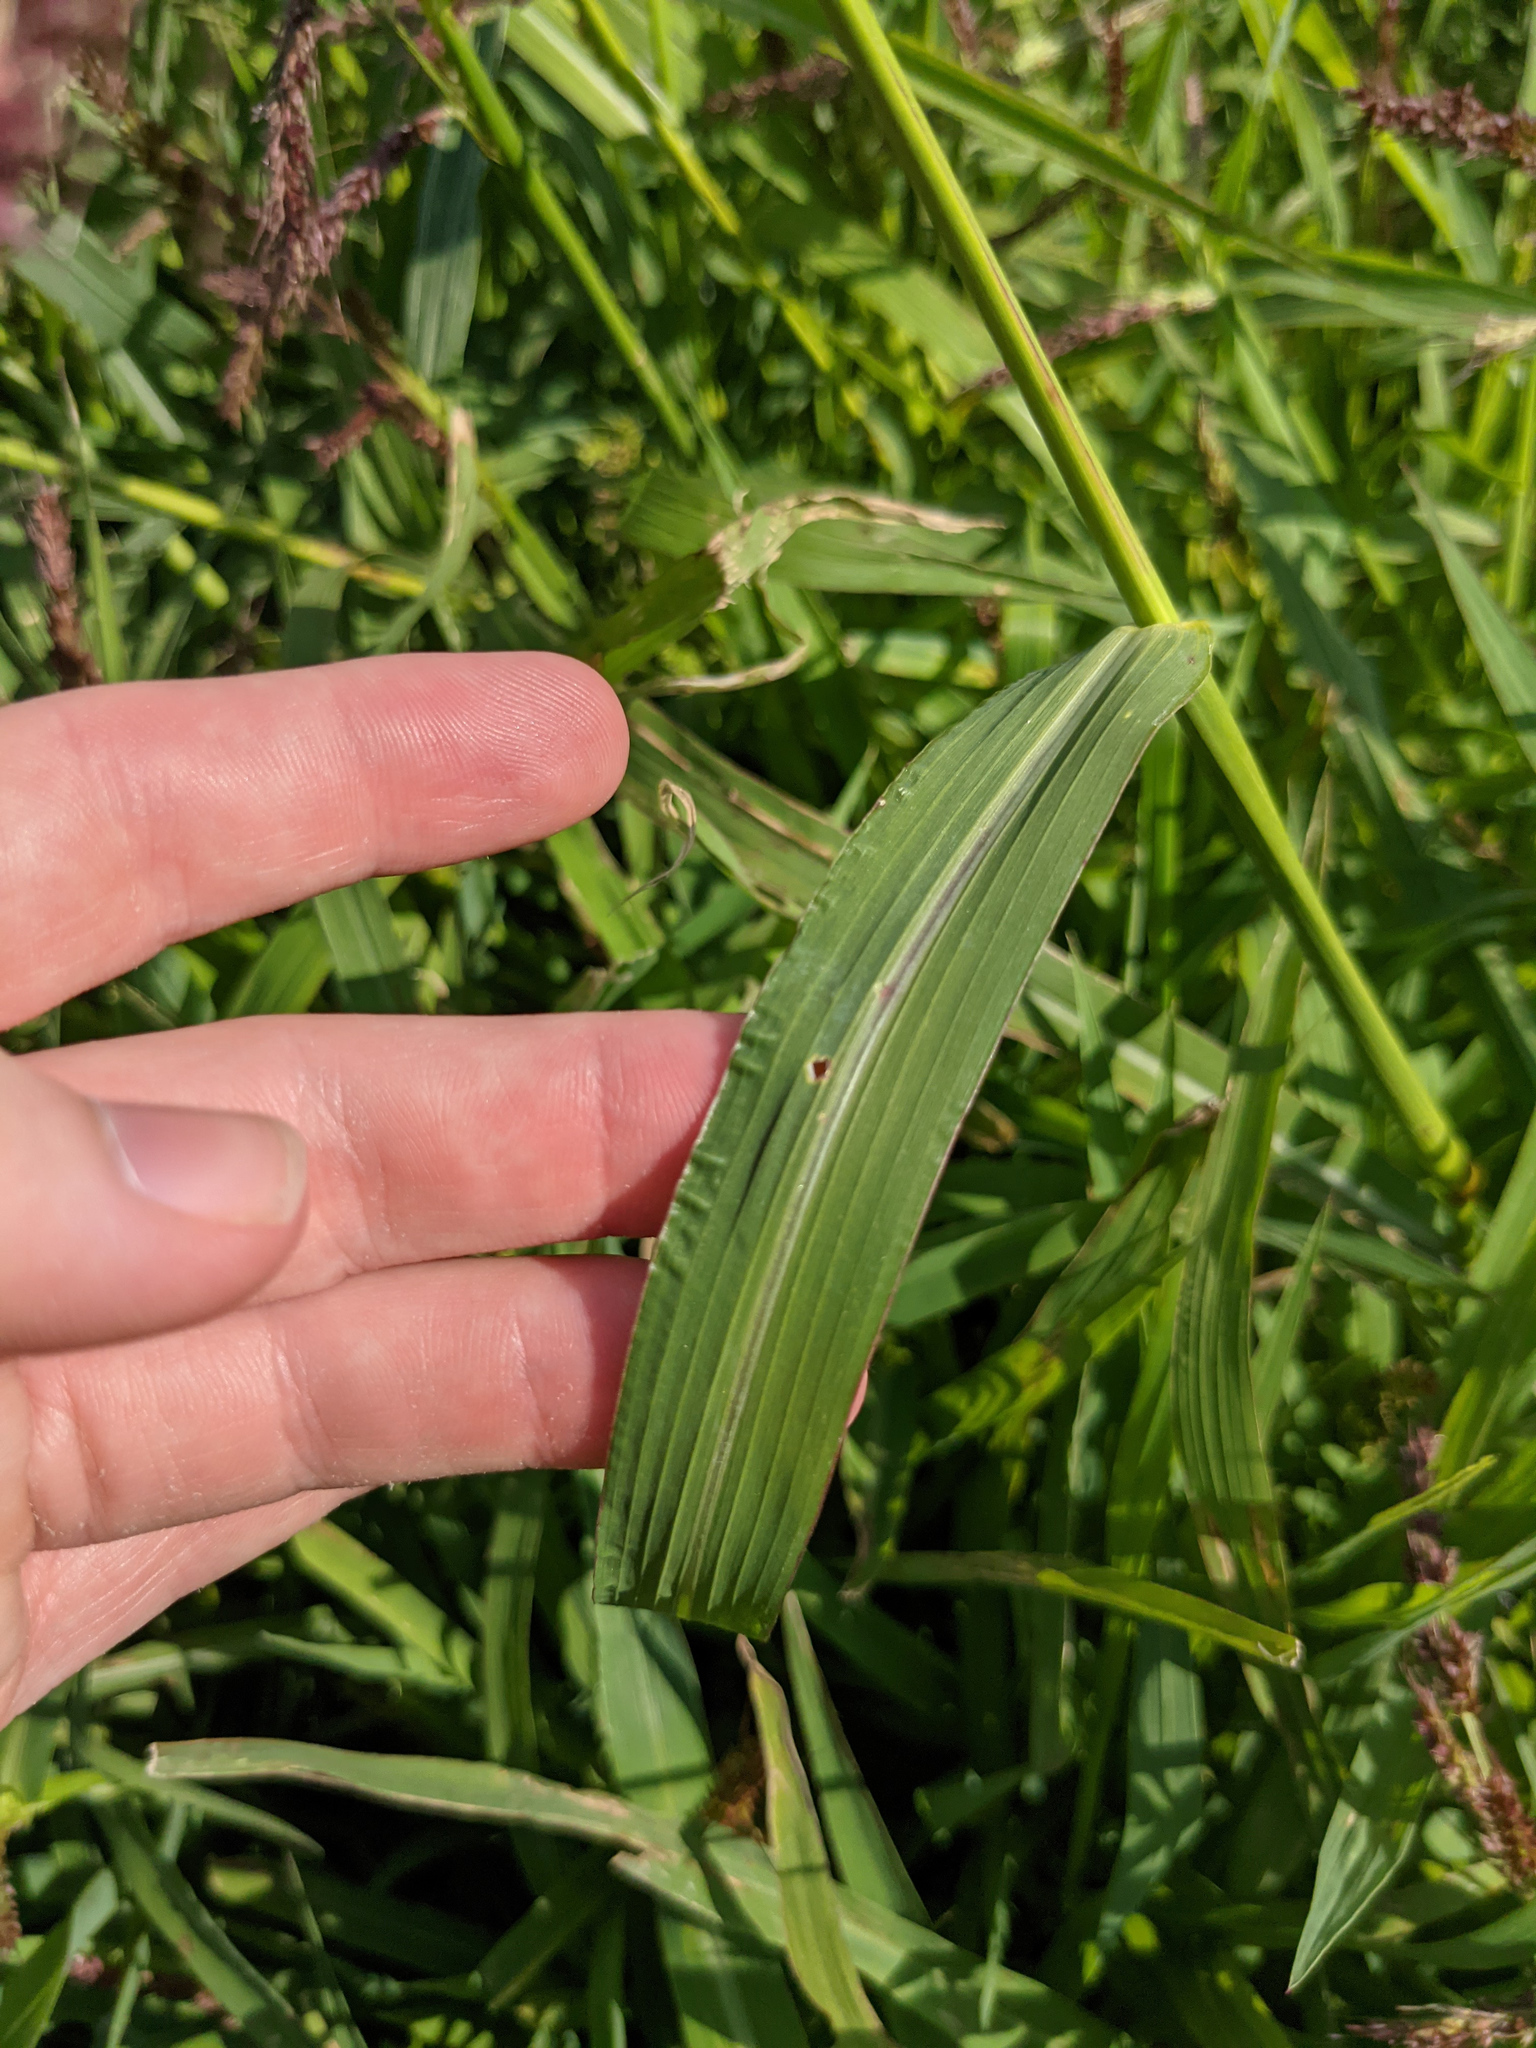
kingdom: Plantae
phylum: Tracheophyta
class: Liliopsida
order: Poales
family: Poaceae
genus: Echinochloa
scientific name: Echinochloa crus-galli
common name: Cockspur
